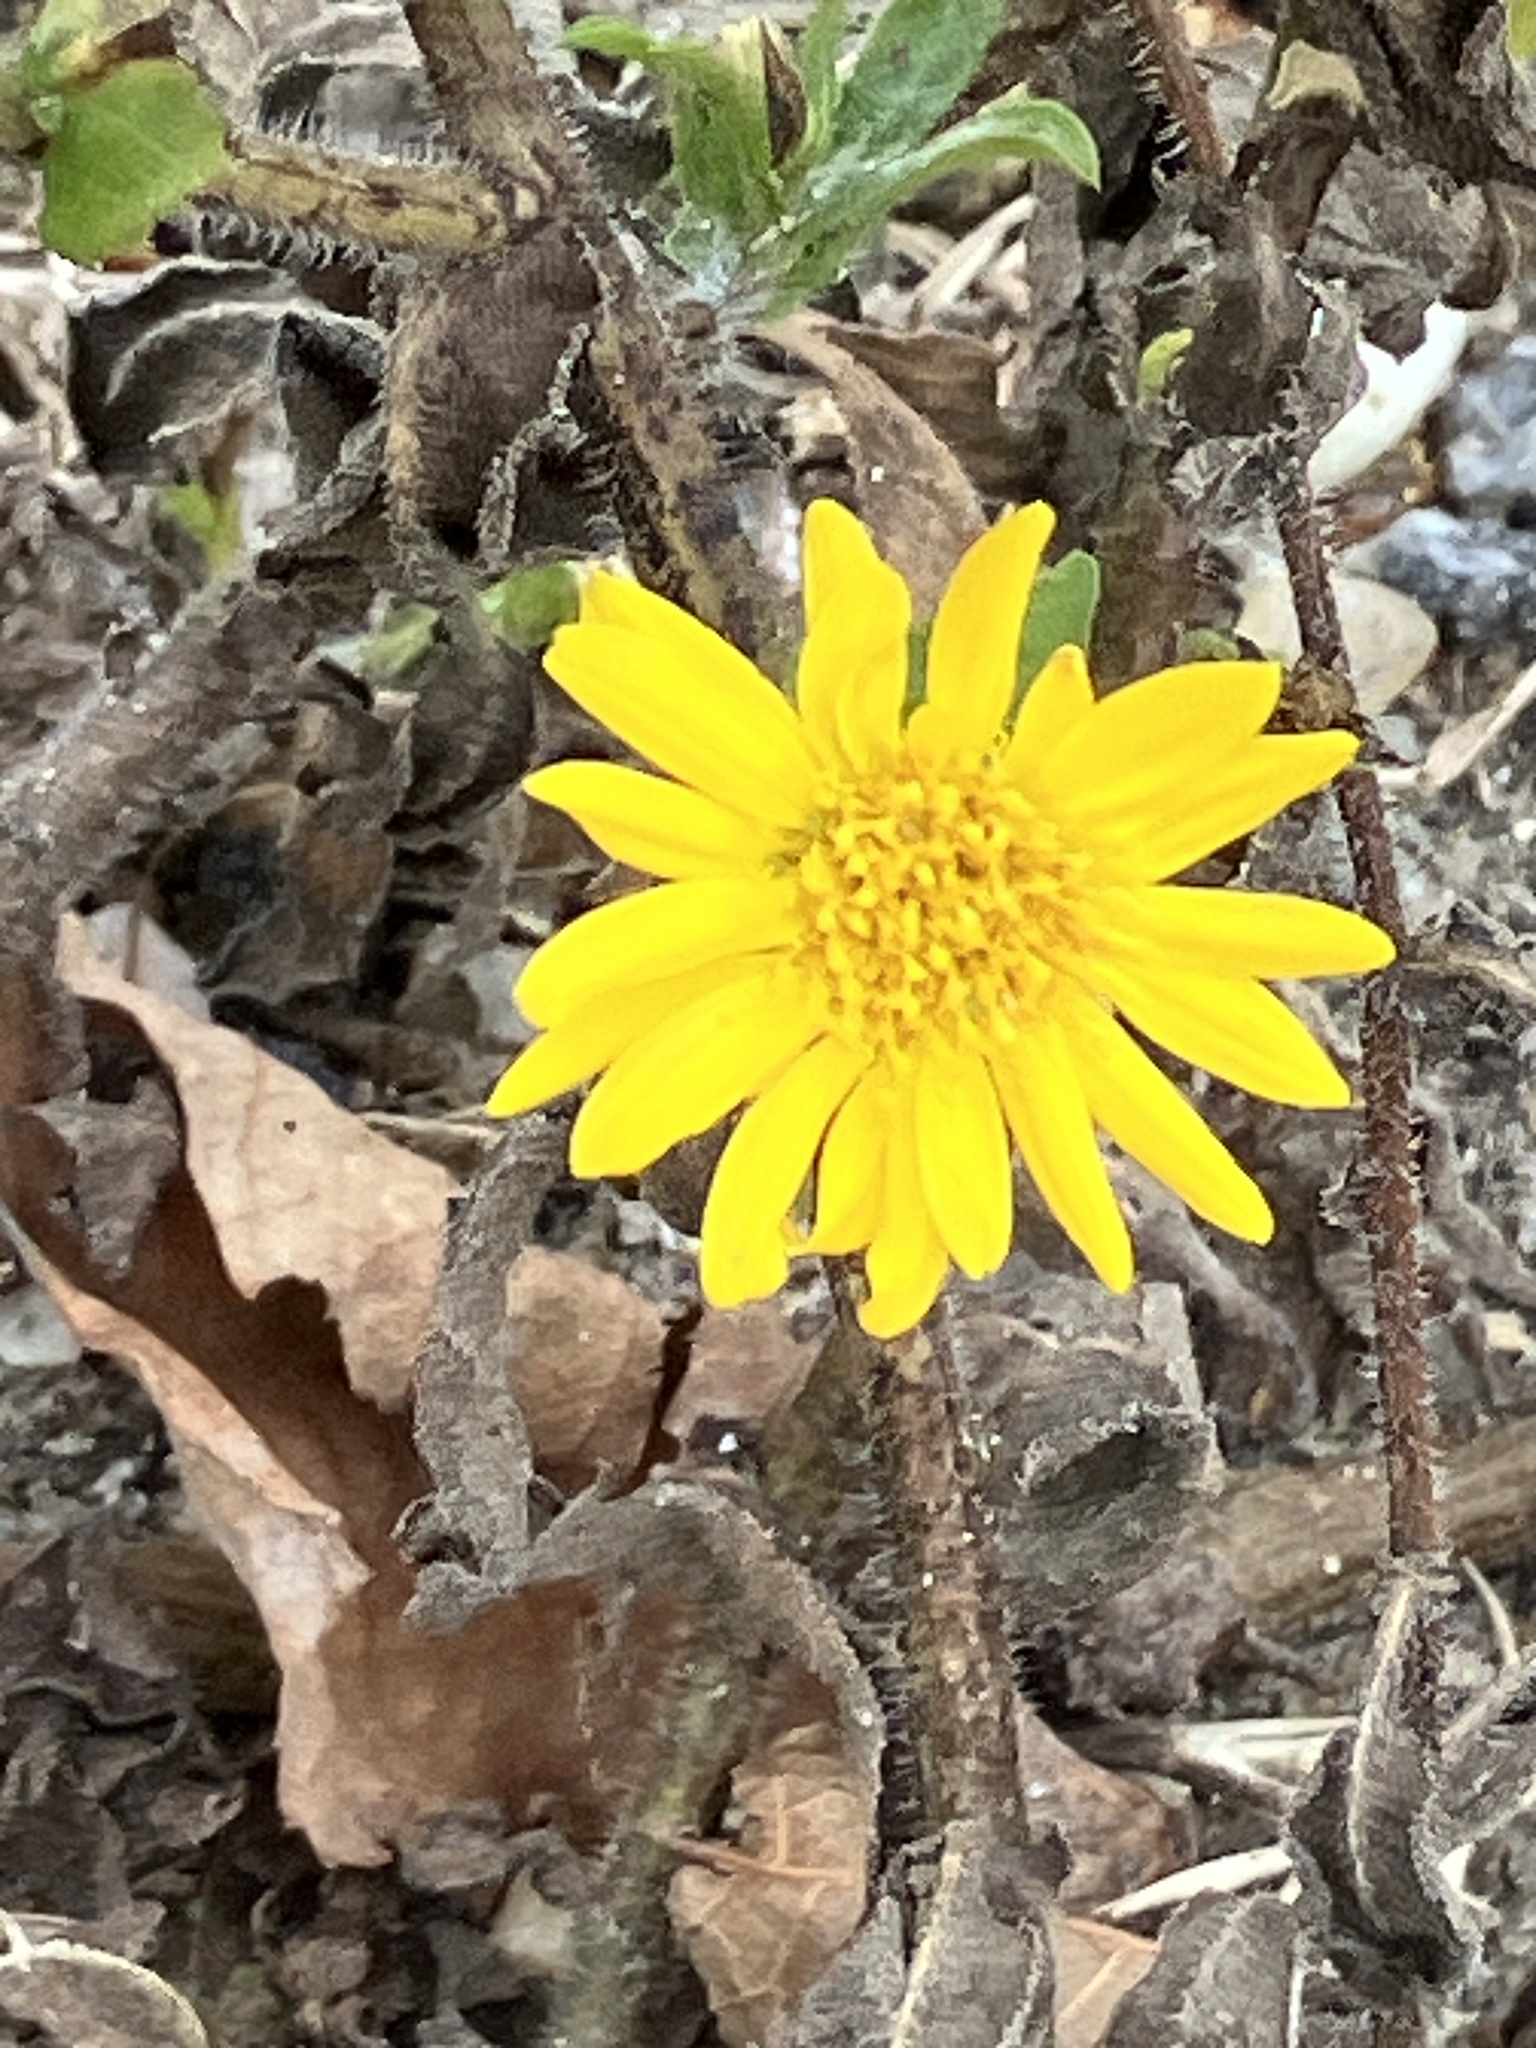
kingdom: Plantae
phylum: Tracheophyta
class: Magnoliopsida
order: Asterales
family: Asteraceae
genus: Heterotheca
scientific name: Heterotheca subaxillaris
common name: Camphorweed
